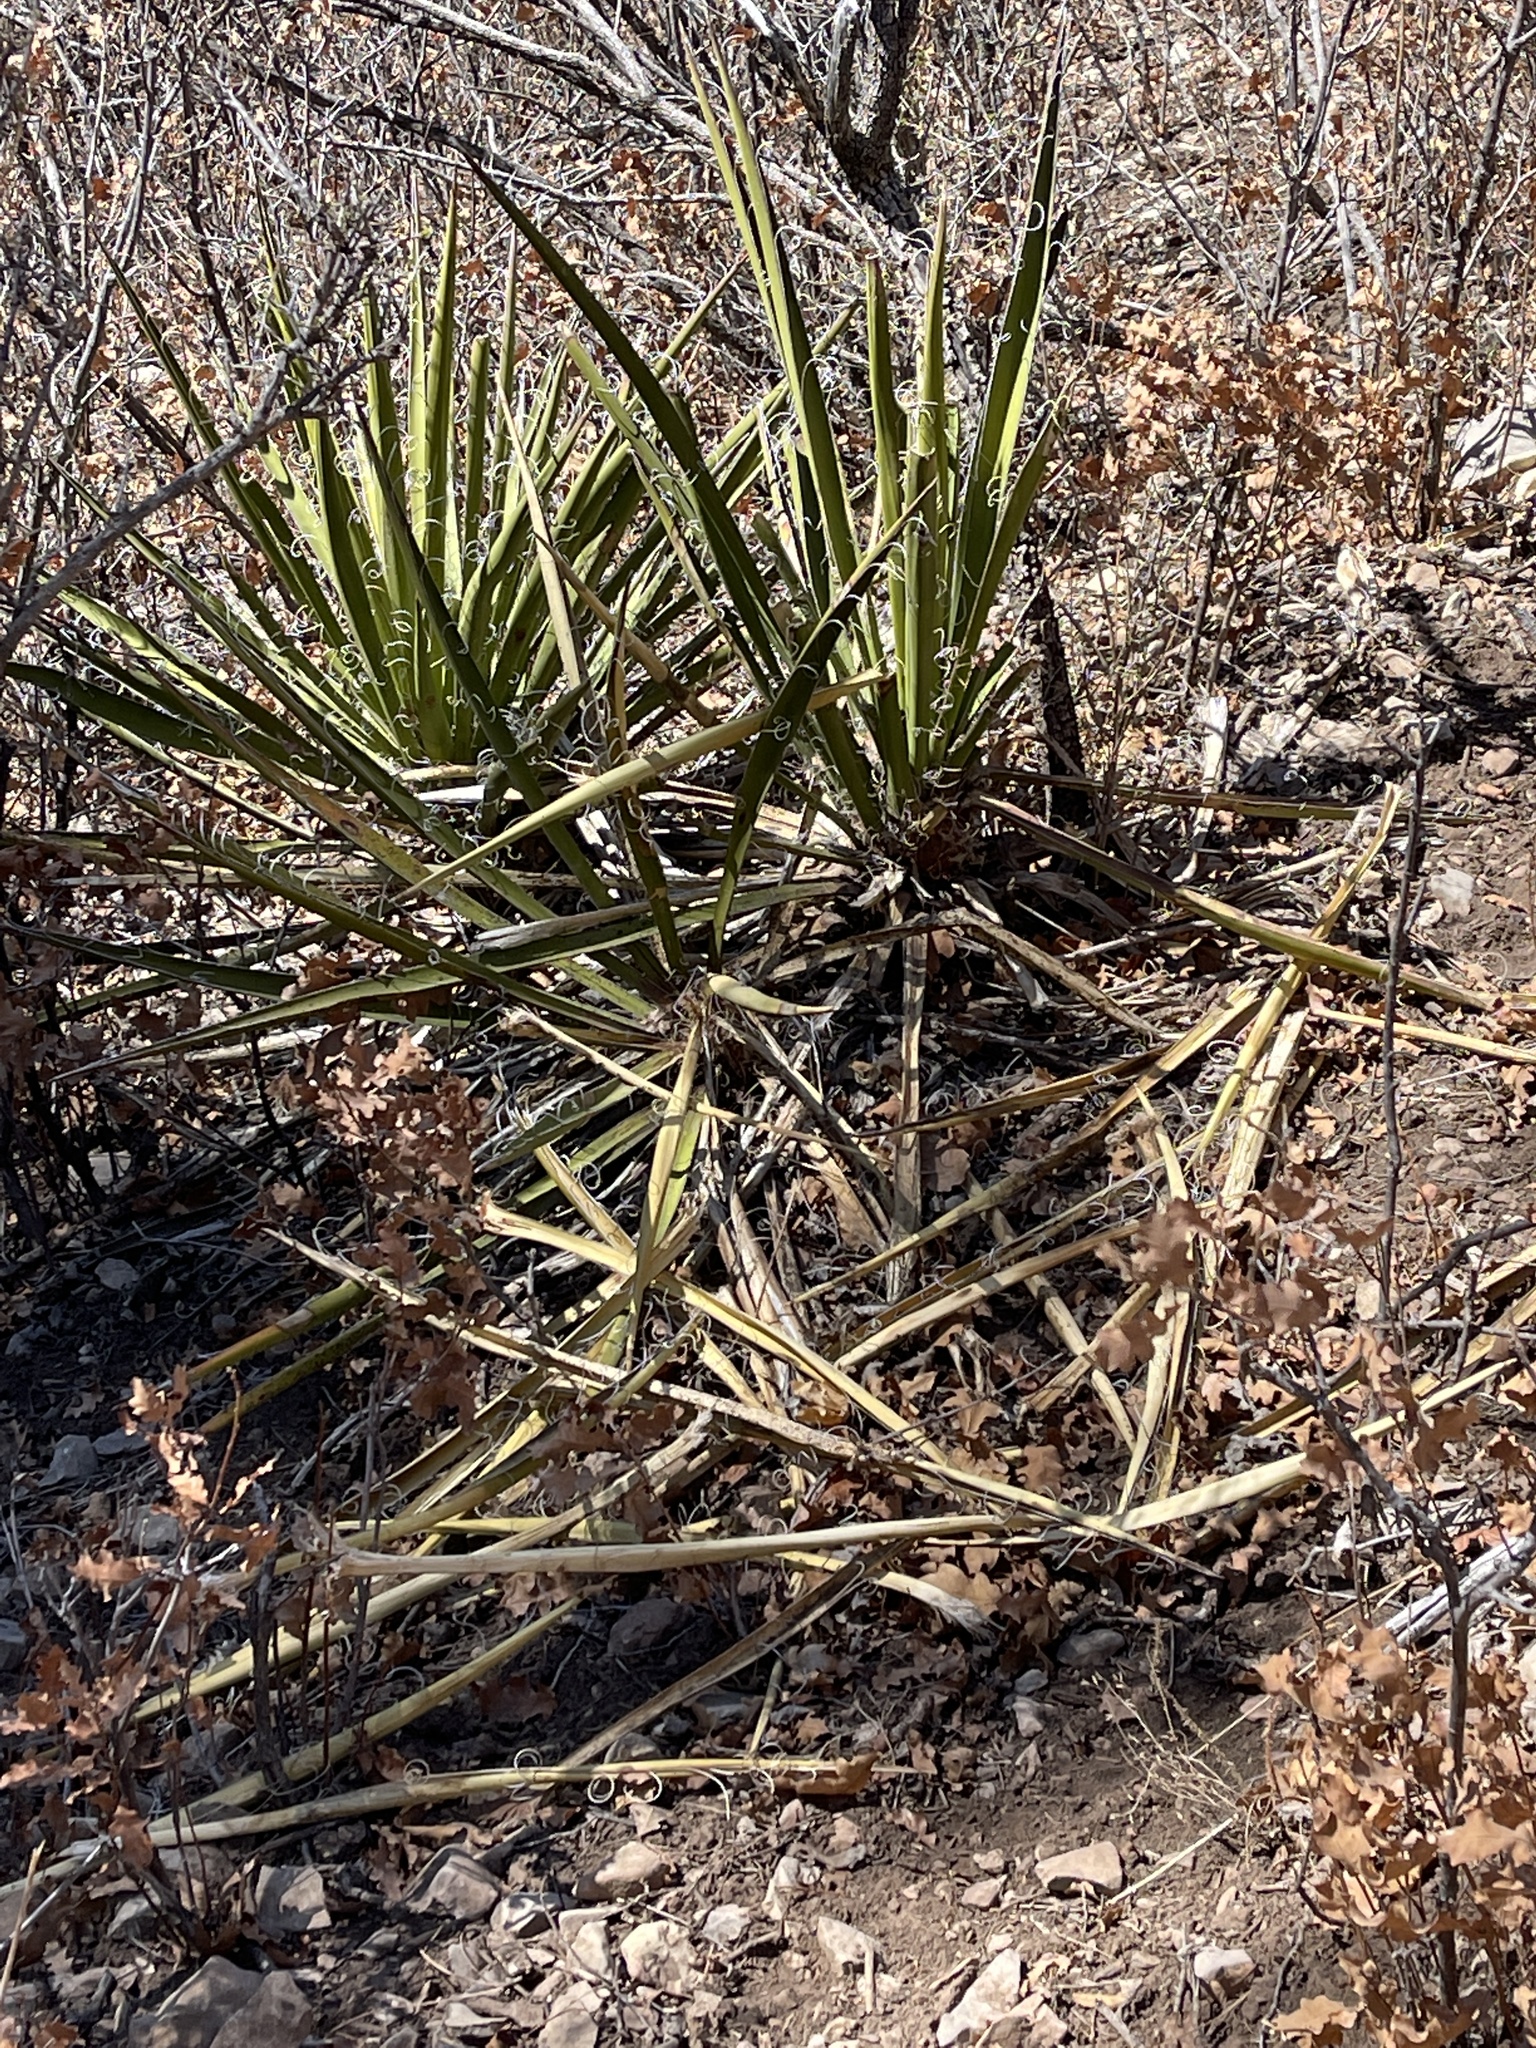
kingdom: Plantae
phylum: Tracheophyta
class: Liliopsida
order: Asparagales
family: Asparagaceae
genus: Yucca
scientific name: Yucca baccata
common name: Banana yucca
